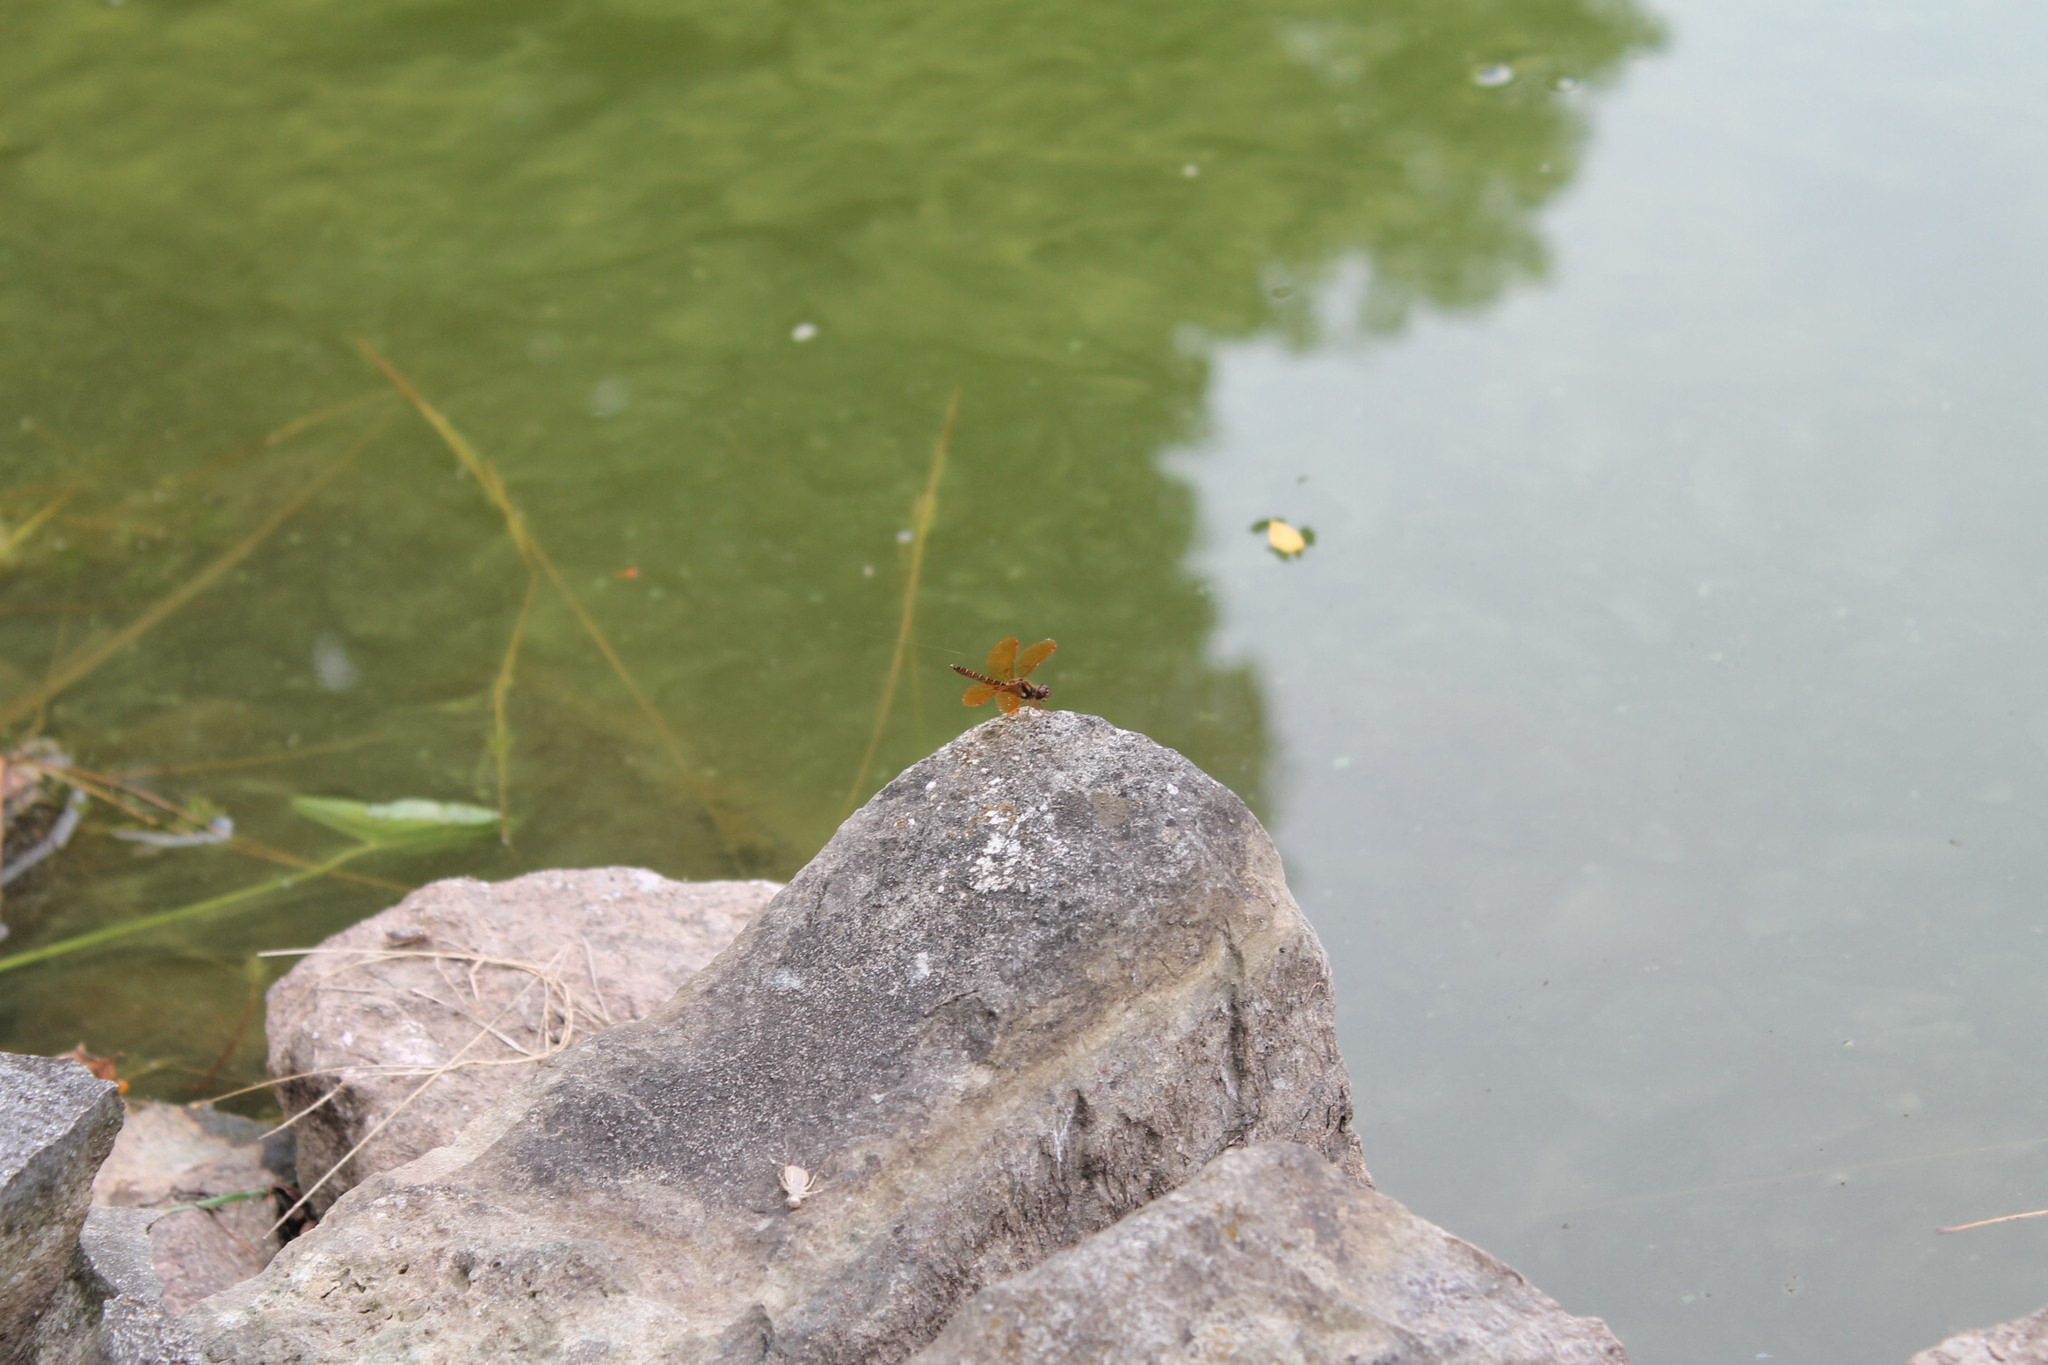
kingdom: Animalia
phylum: Arthropoda
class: Insecta
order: Odonata
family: Libellulidae
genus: Perithemis
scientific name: Perithemis tenera
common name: Eastern amberwing
